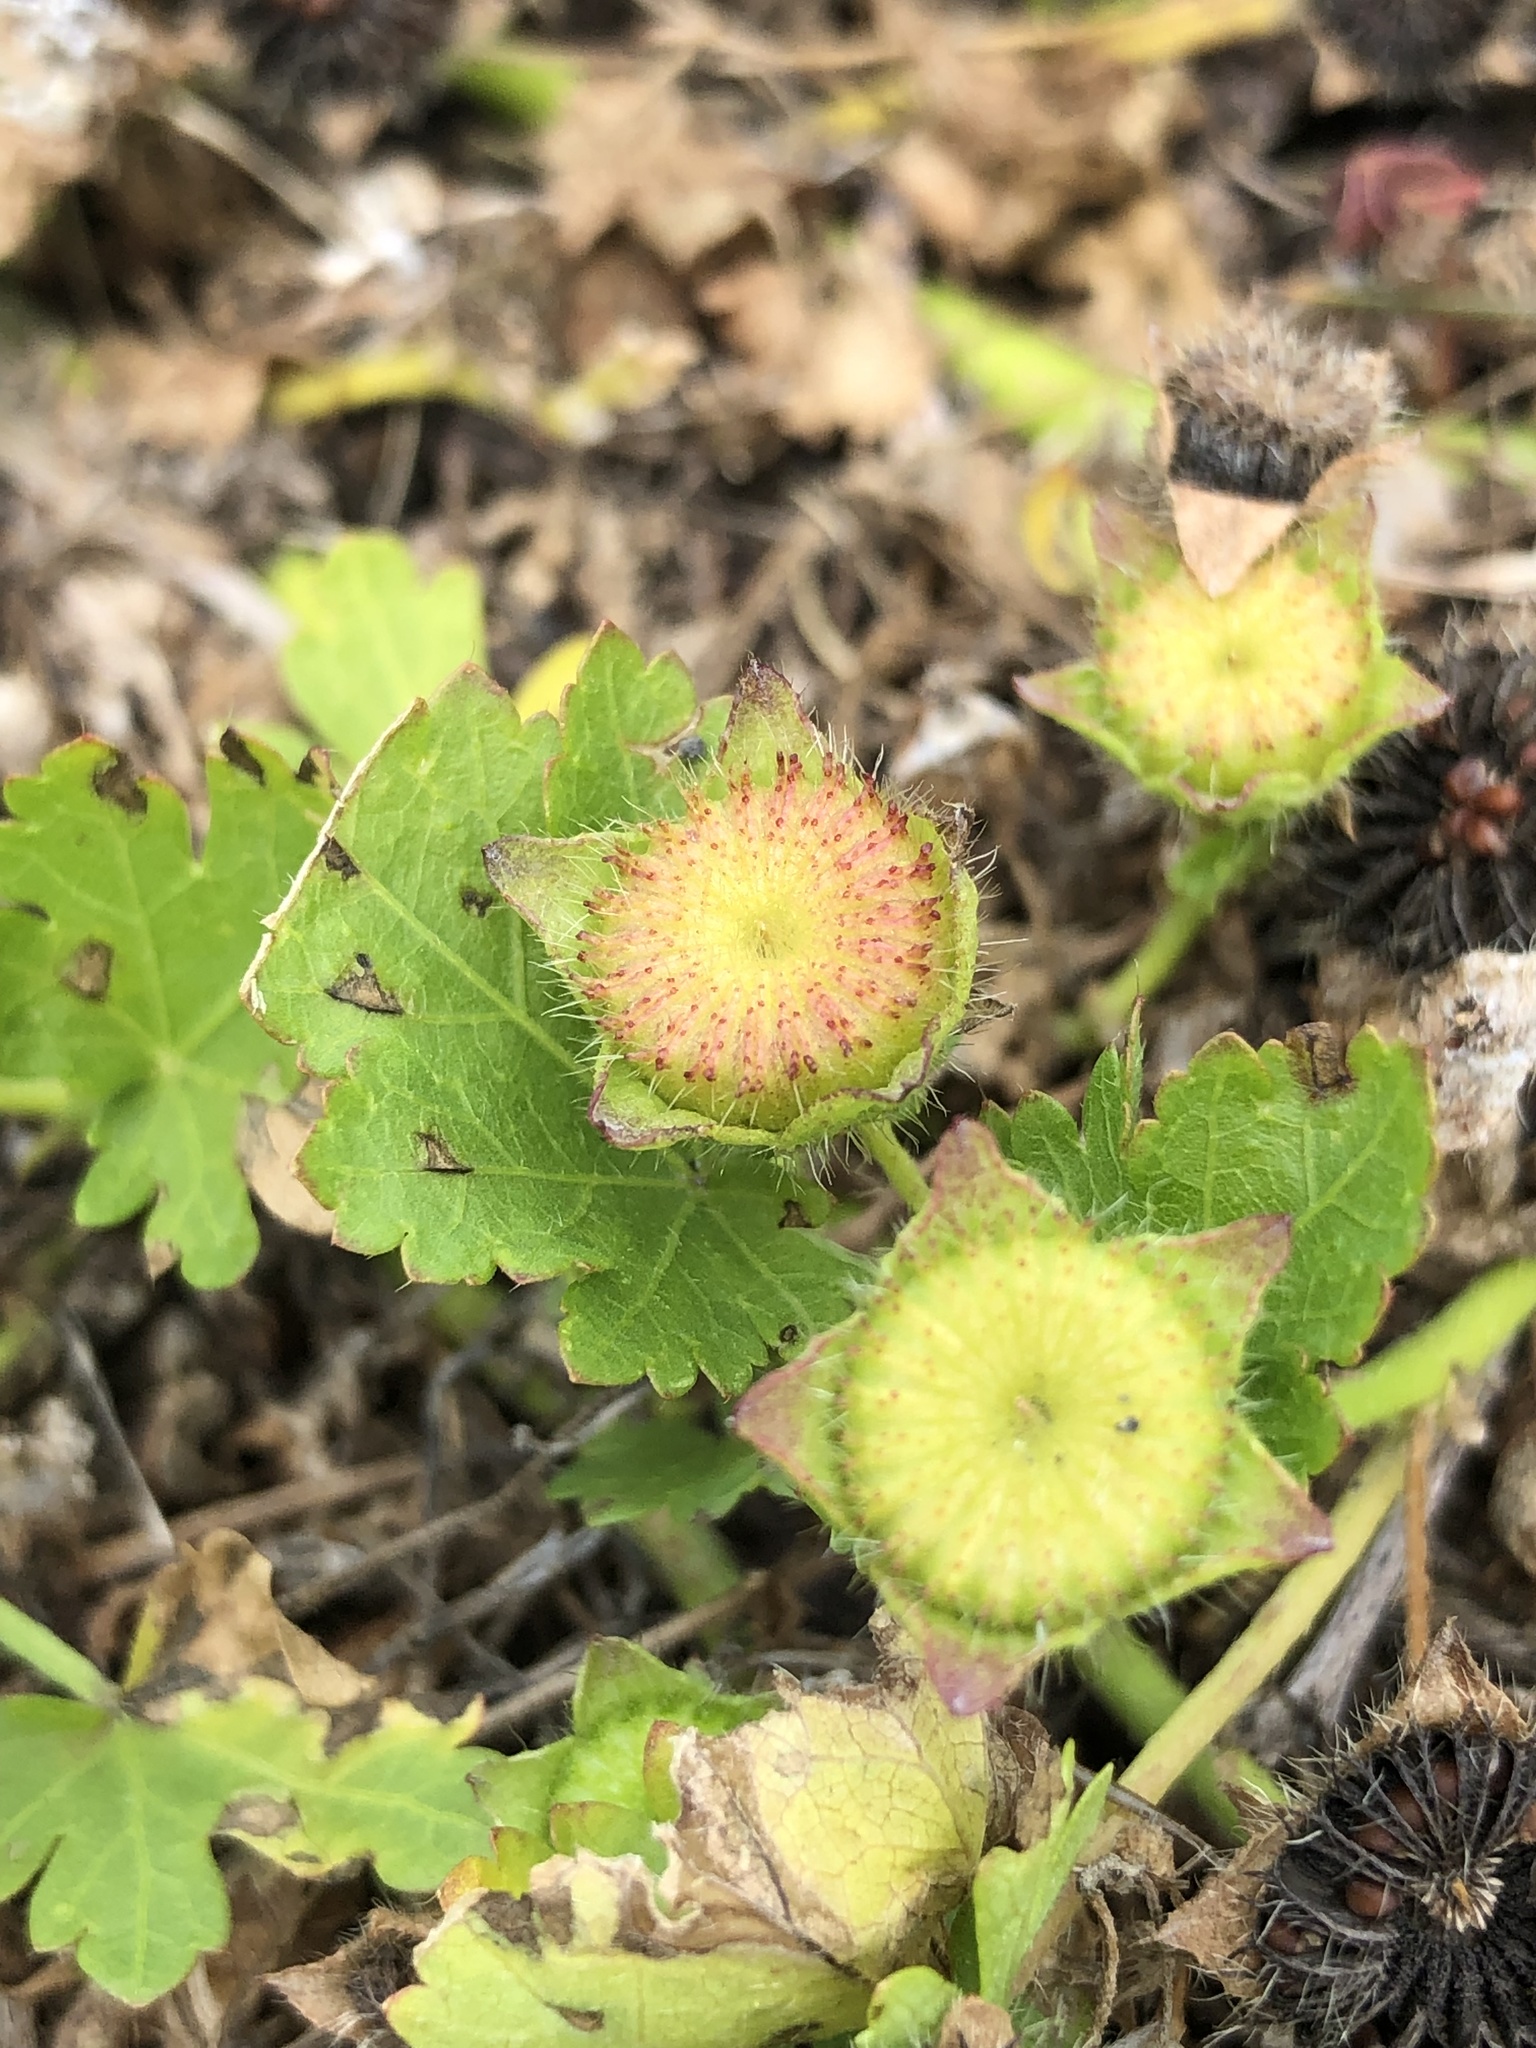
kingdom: Plantae
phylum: Tracheophyta
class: Magnoliopsida
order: Malvales
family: Malvaceae
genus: Modiola
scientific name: Modiola caroliniana
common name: Carolina bristlemallow
